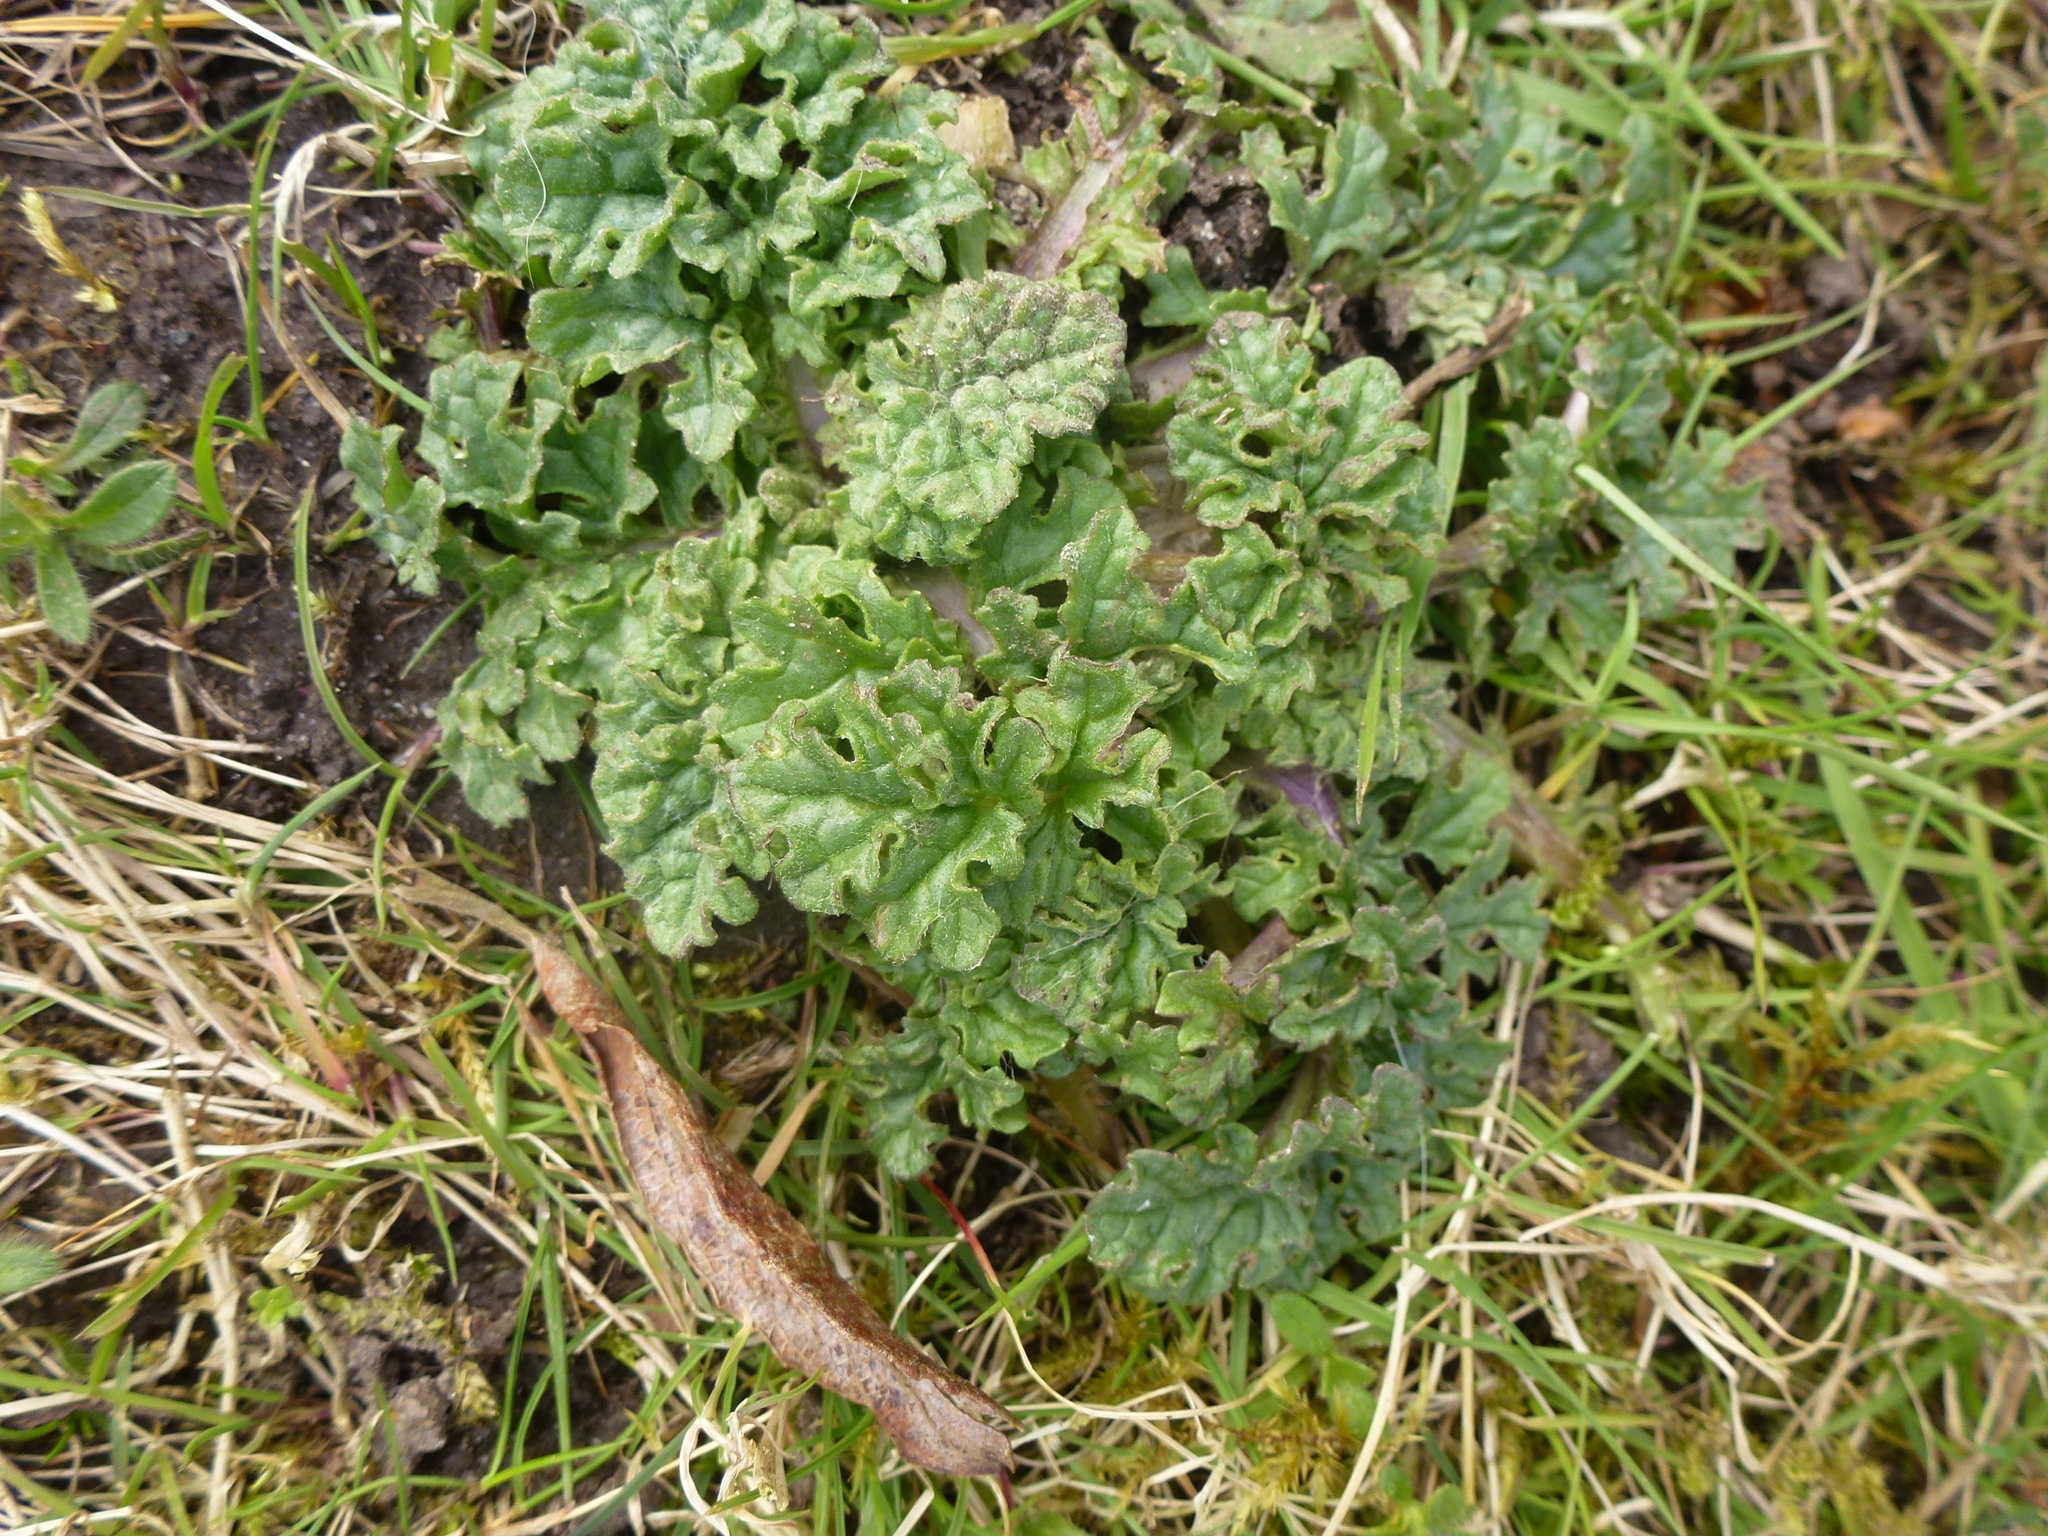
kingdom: Plantae
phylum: Tracheophyta
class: Magnoliopsida
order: Asterales
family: Asteraceae
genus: Jacobaea
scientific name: Jacobaea vulgaris
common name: Stinking willie
